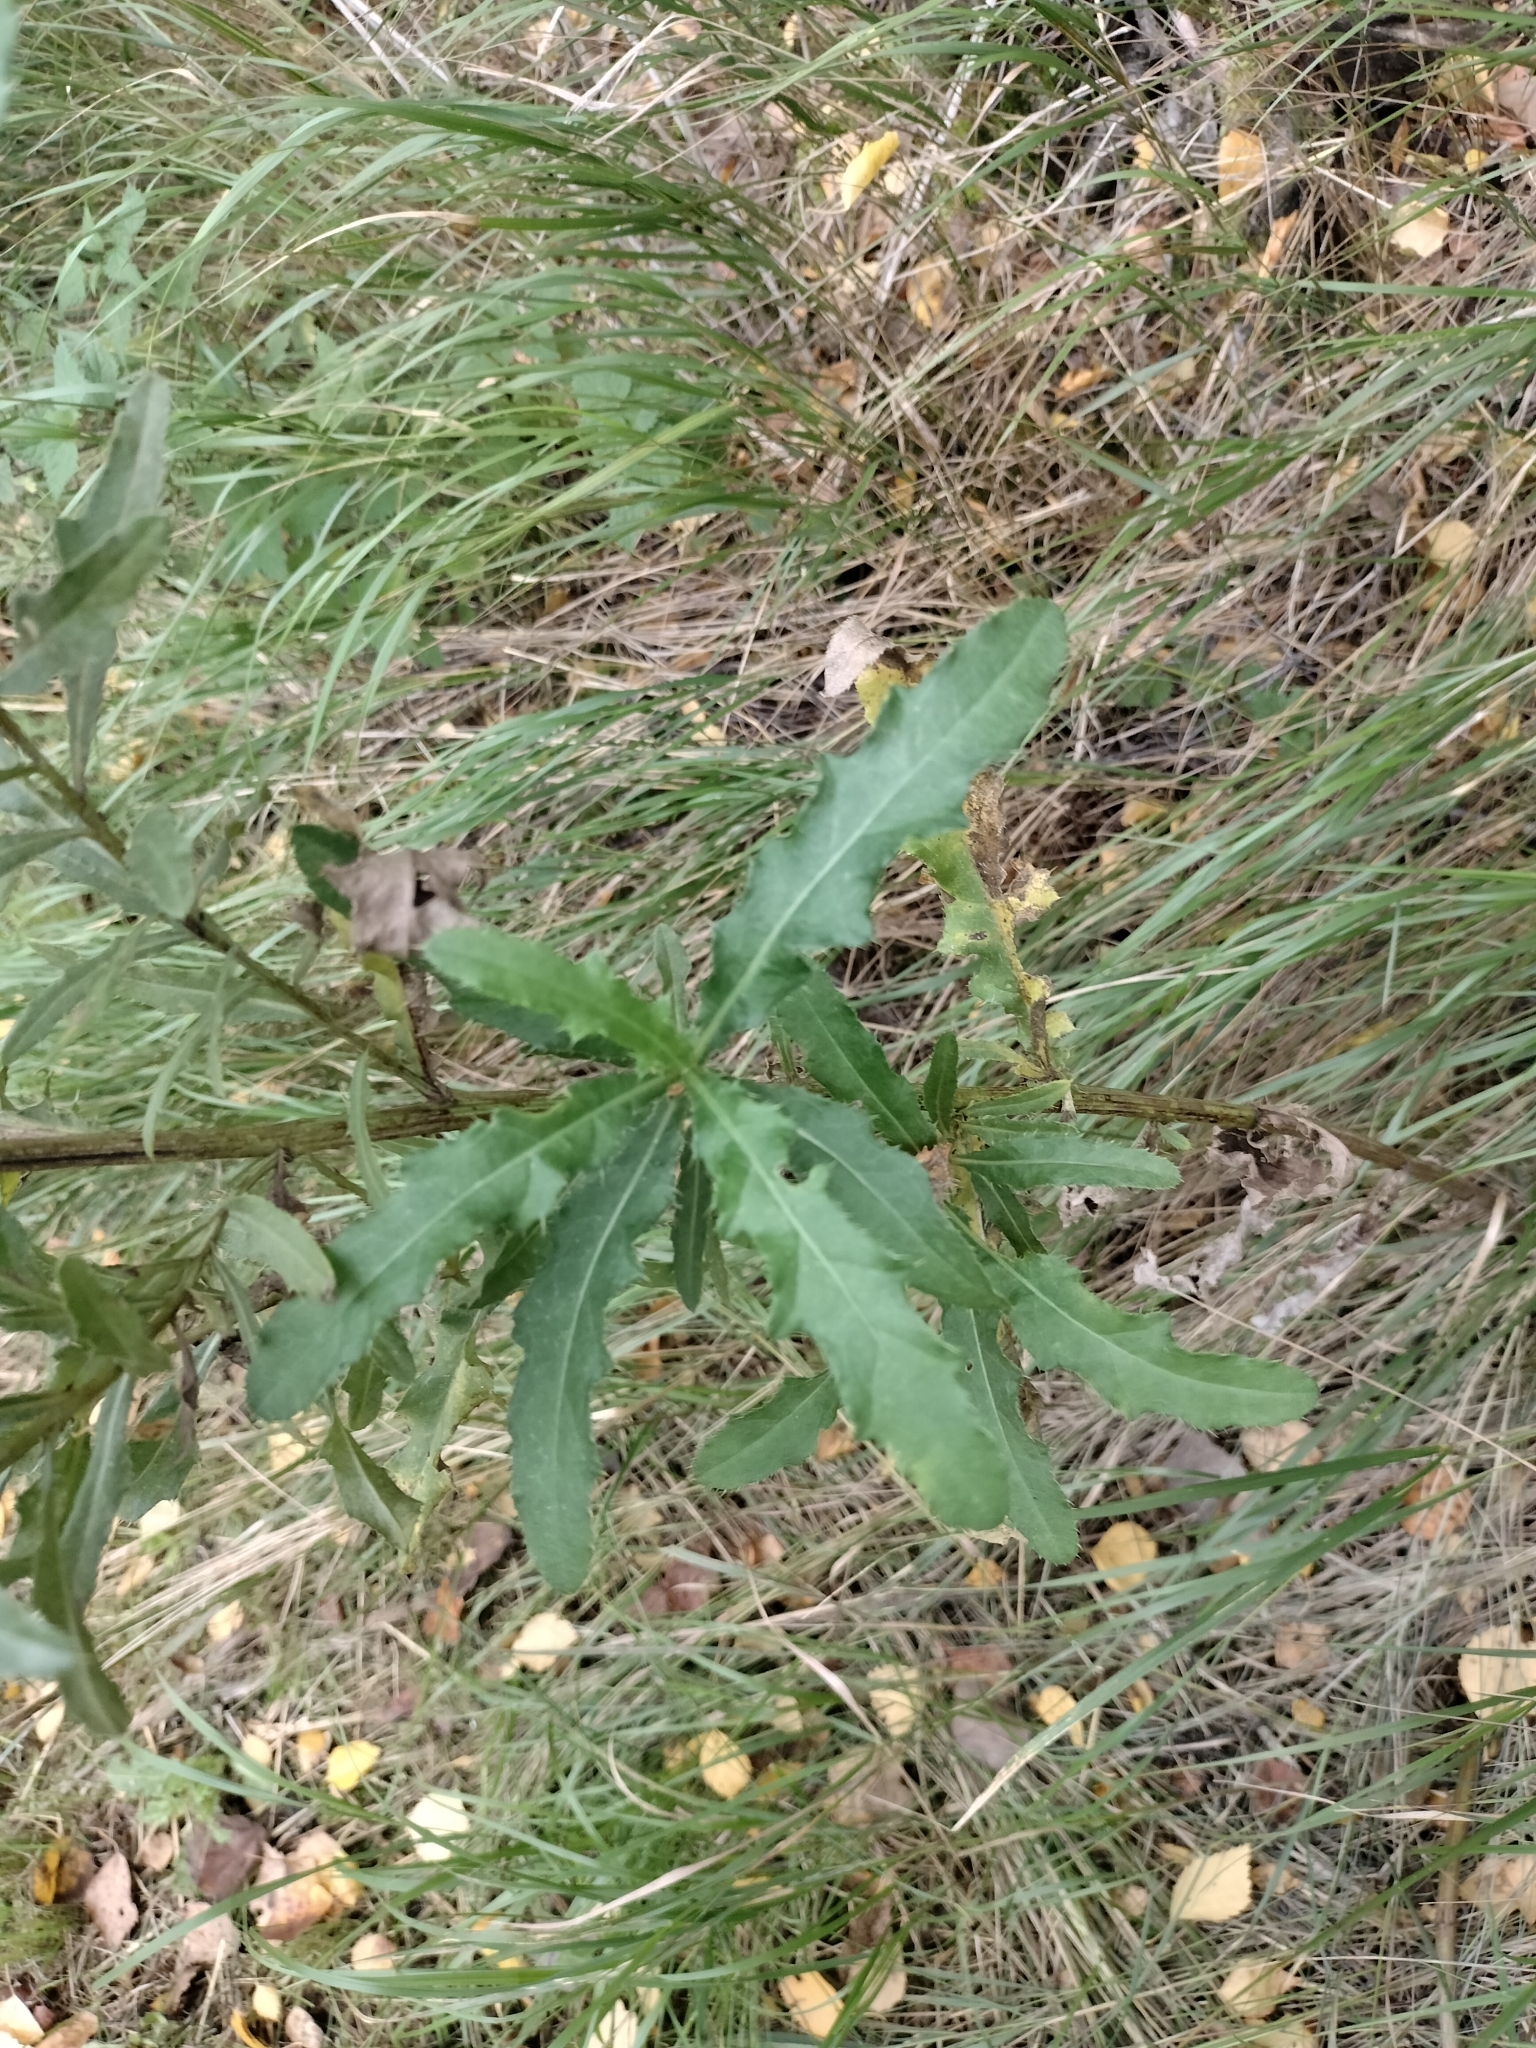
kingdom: Plantae
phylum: Tracheophyta
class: Magnoliopsida
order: Asterales
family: Asteraceae
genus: Cirsium
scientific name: Cirsium arvense
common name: Creeping thistle
